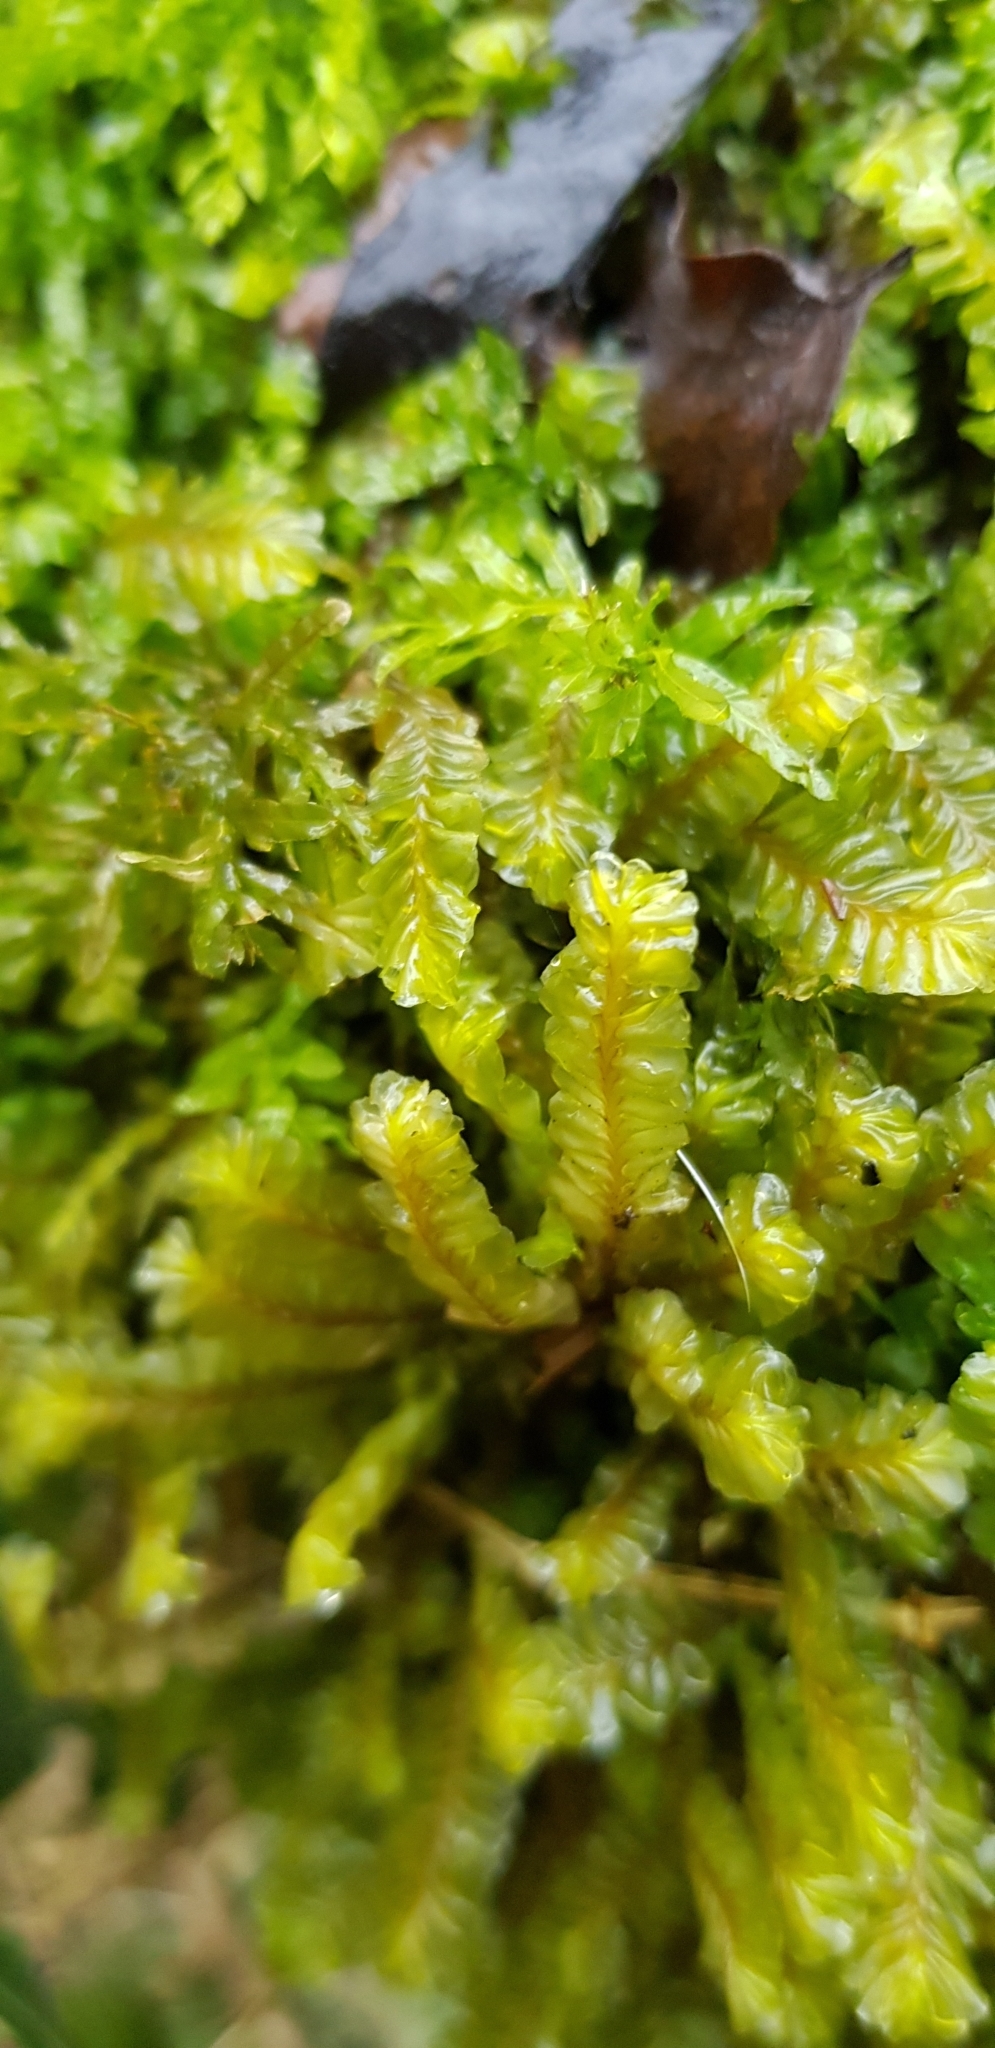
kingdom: Plantae
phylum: Marchantiophyta
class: Jungermanniopsida
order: Jungermanniales
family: Plagiochilaceae
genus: Plagiochila
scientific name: Plagiochila asplenioides
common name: Greater featherwort
